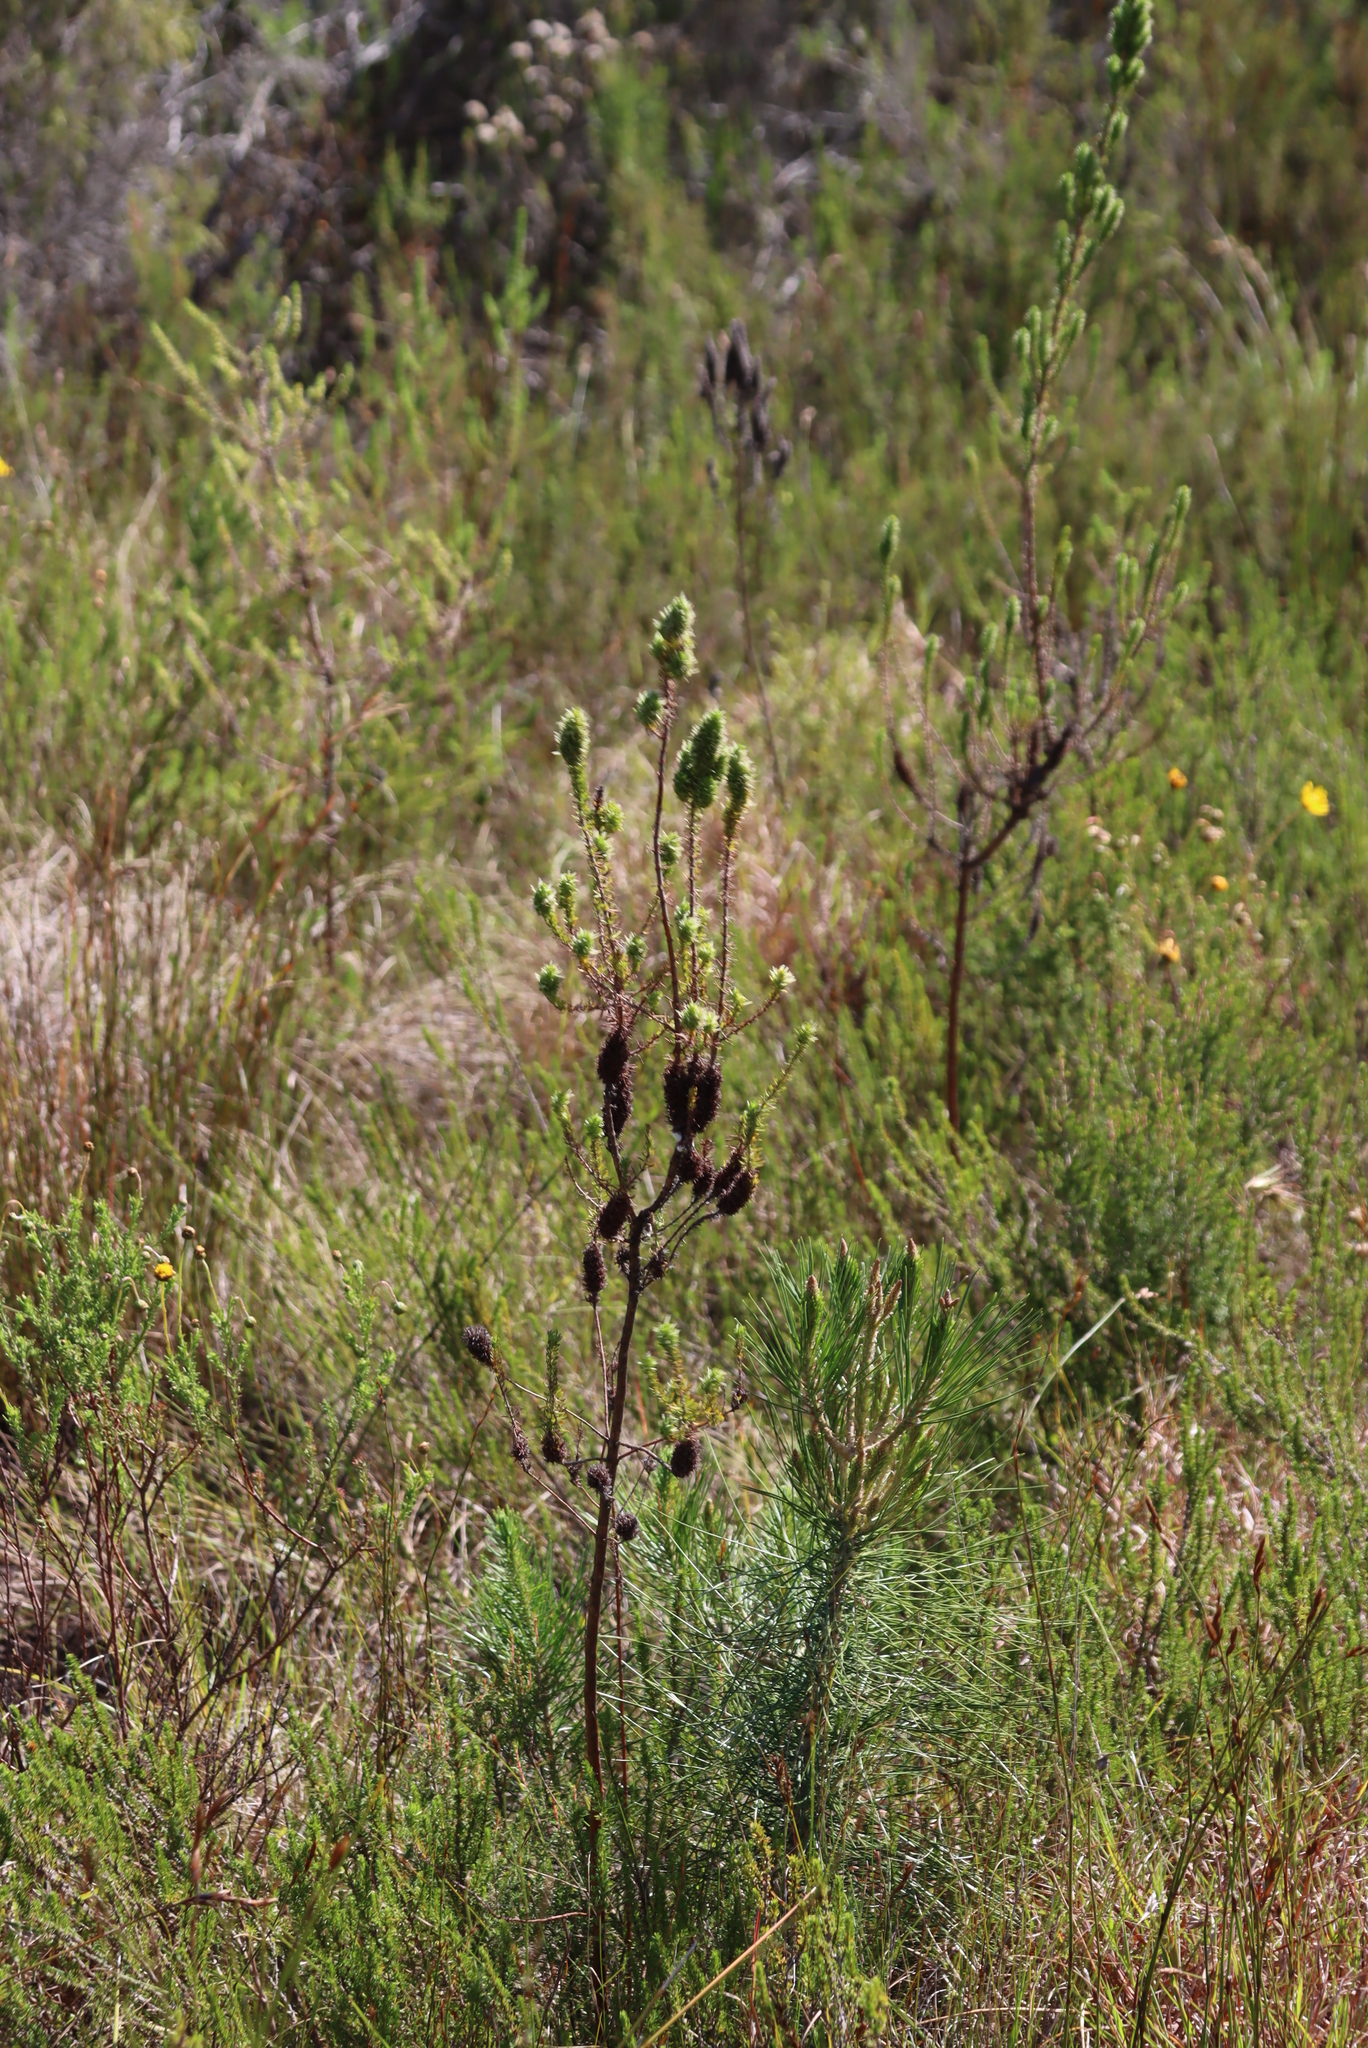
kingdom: Plantae
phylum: Tracheophyta
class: Pinopsida
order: Pinales
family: Pinaceae
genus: Pinus
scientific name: Pinus pinaster
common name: Maritime pine
